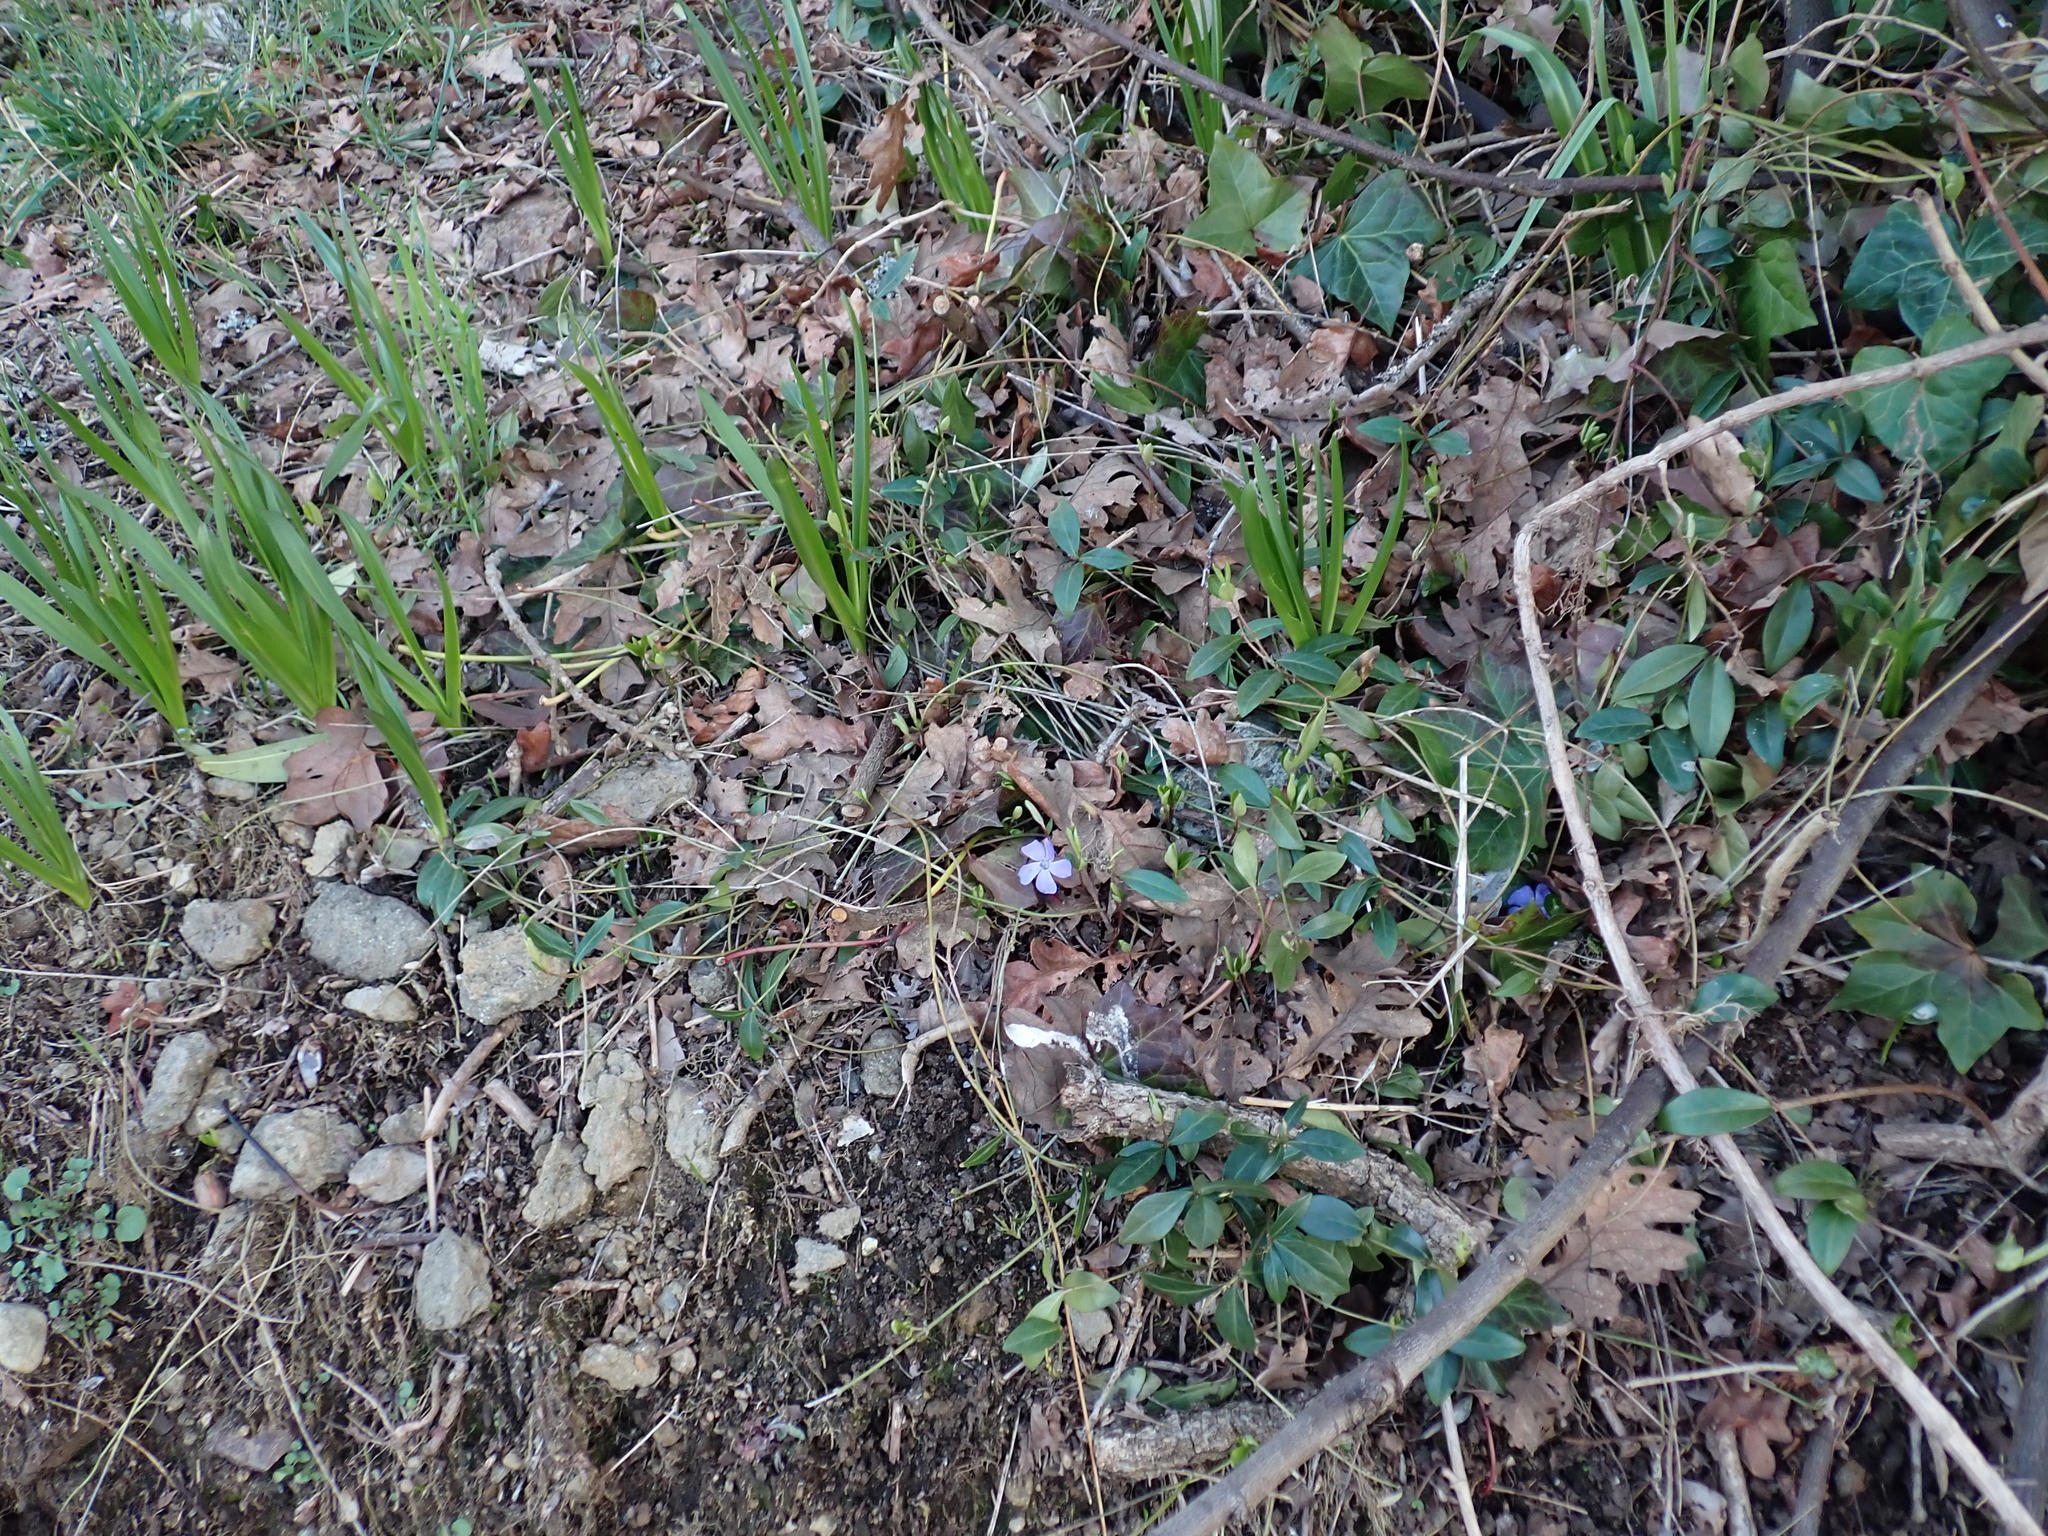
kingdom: Plantae
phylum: Tracheophyta
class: Magnoliopsida
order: Gentianales
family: Apocynaceae
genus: Vinca
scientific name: Vinca minor
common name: Lesser periwinkle
